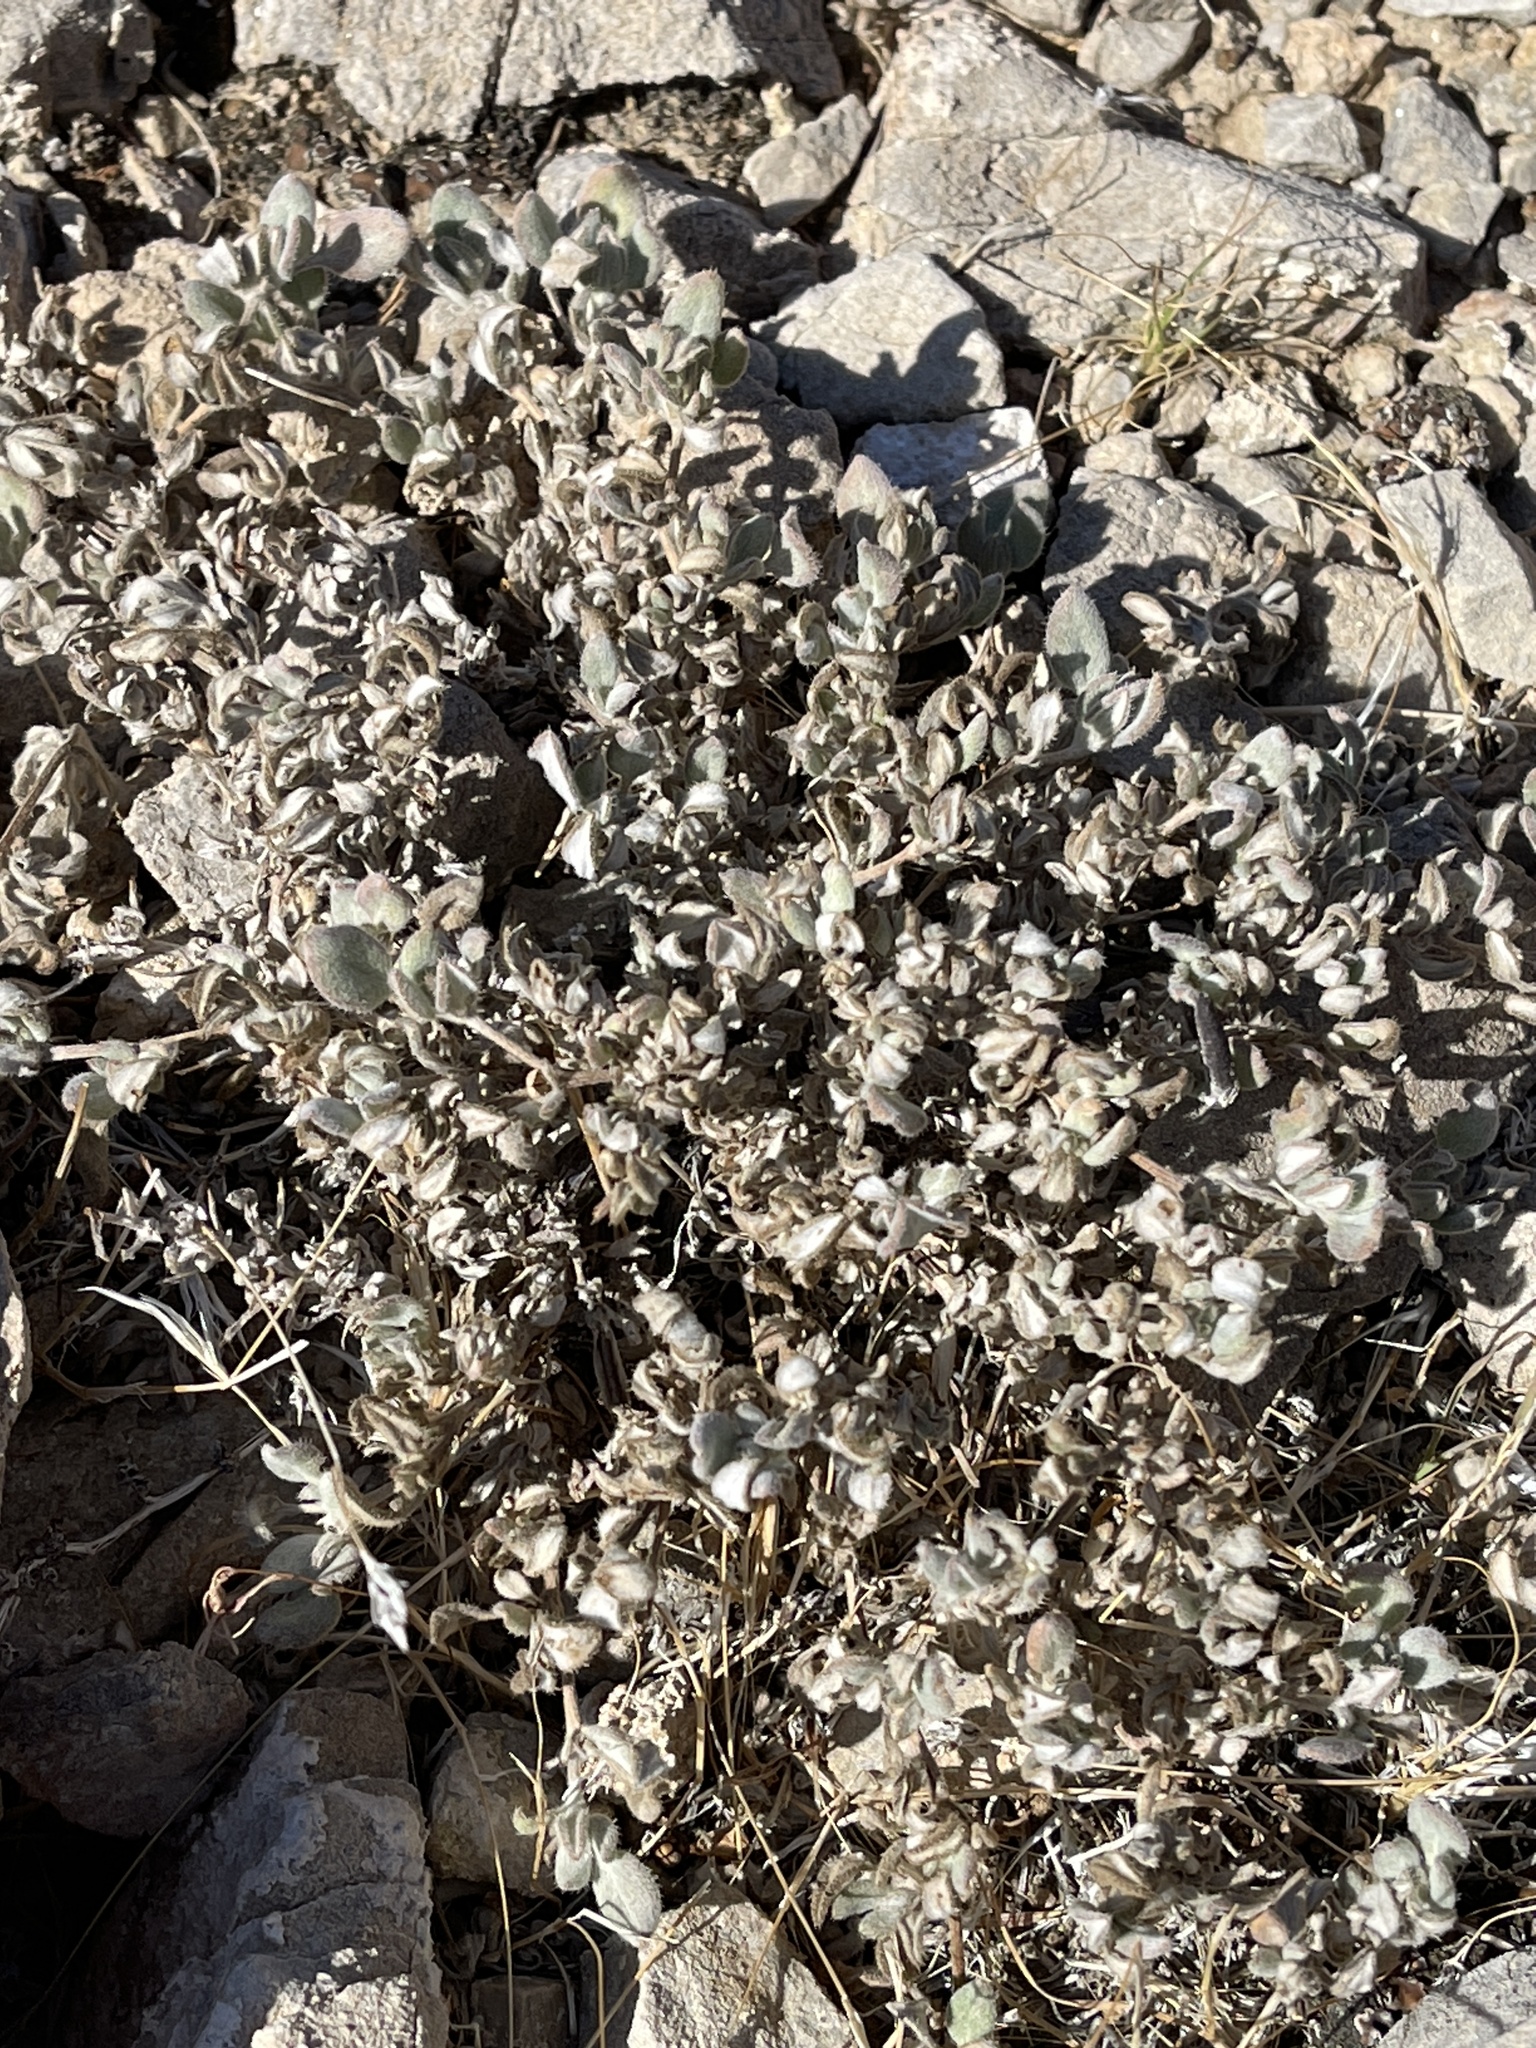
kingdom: Plantae
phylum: Tracheophyta
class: Magnoliopsida
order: Boraginales
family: Ehretiaceae
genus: Tiquilia
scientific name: Tiquilia canescens
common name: Hairy tiquilia
